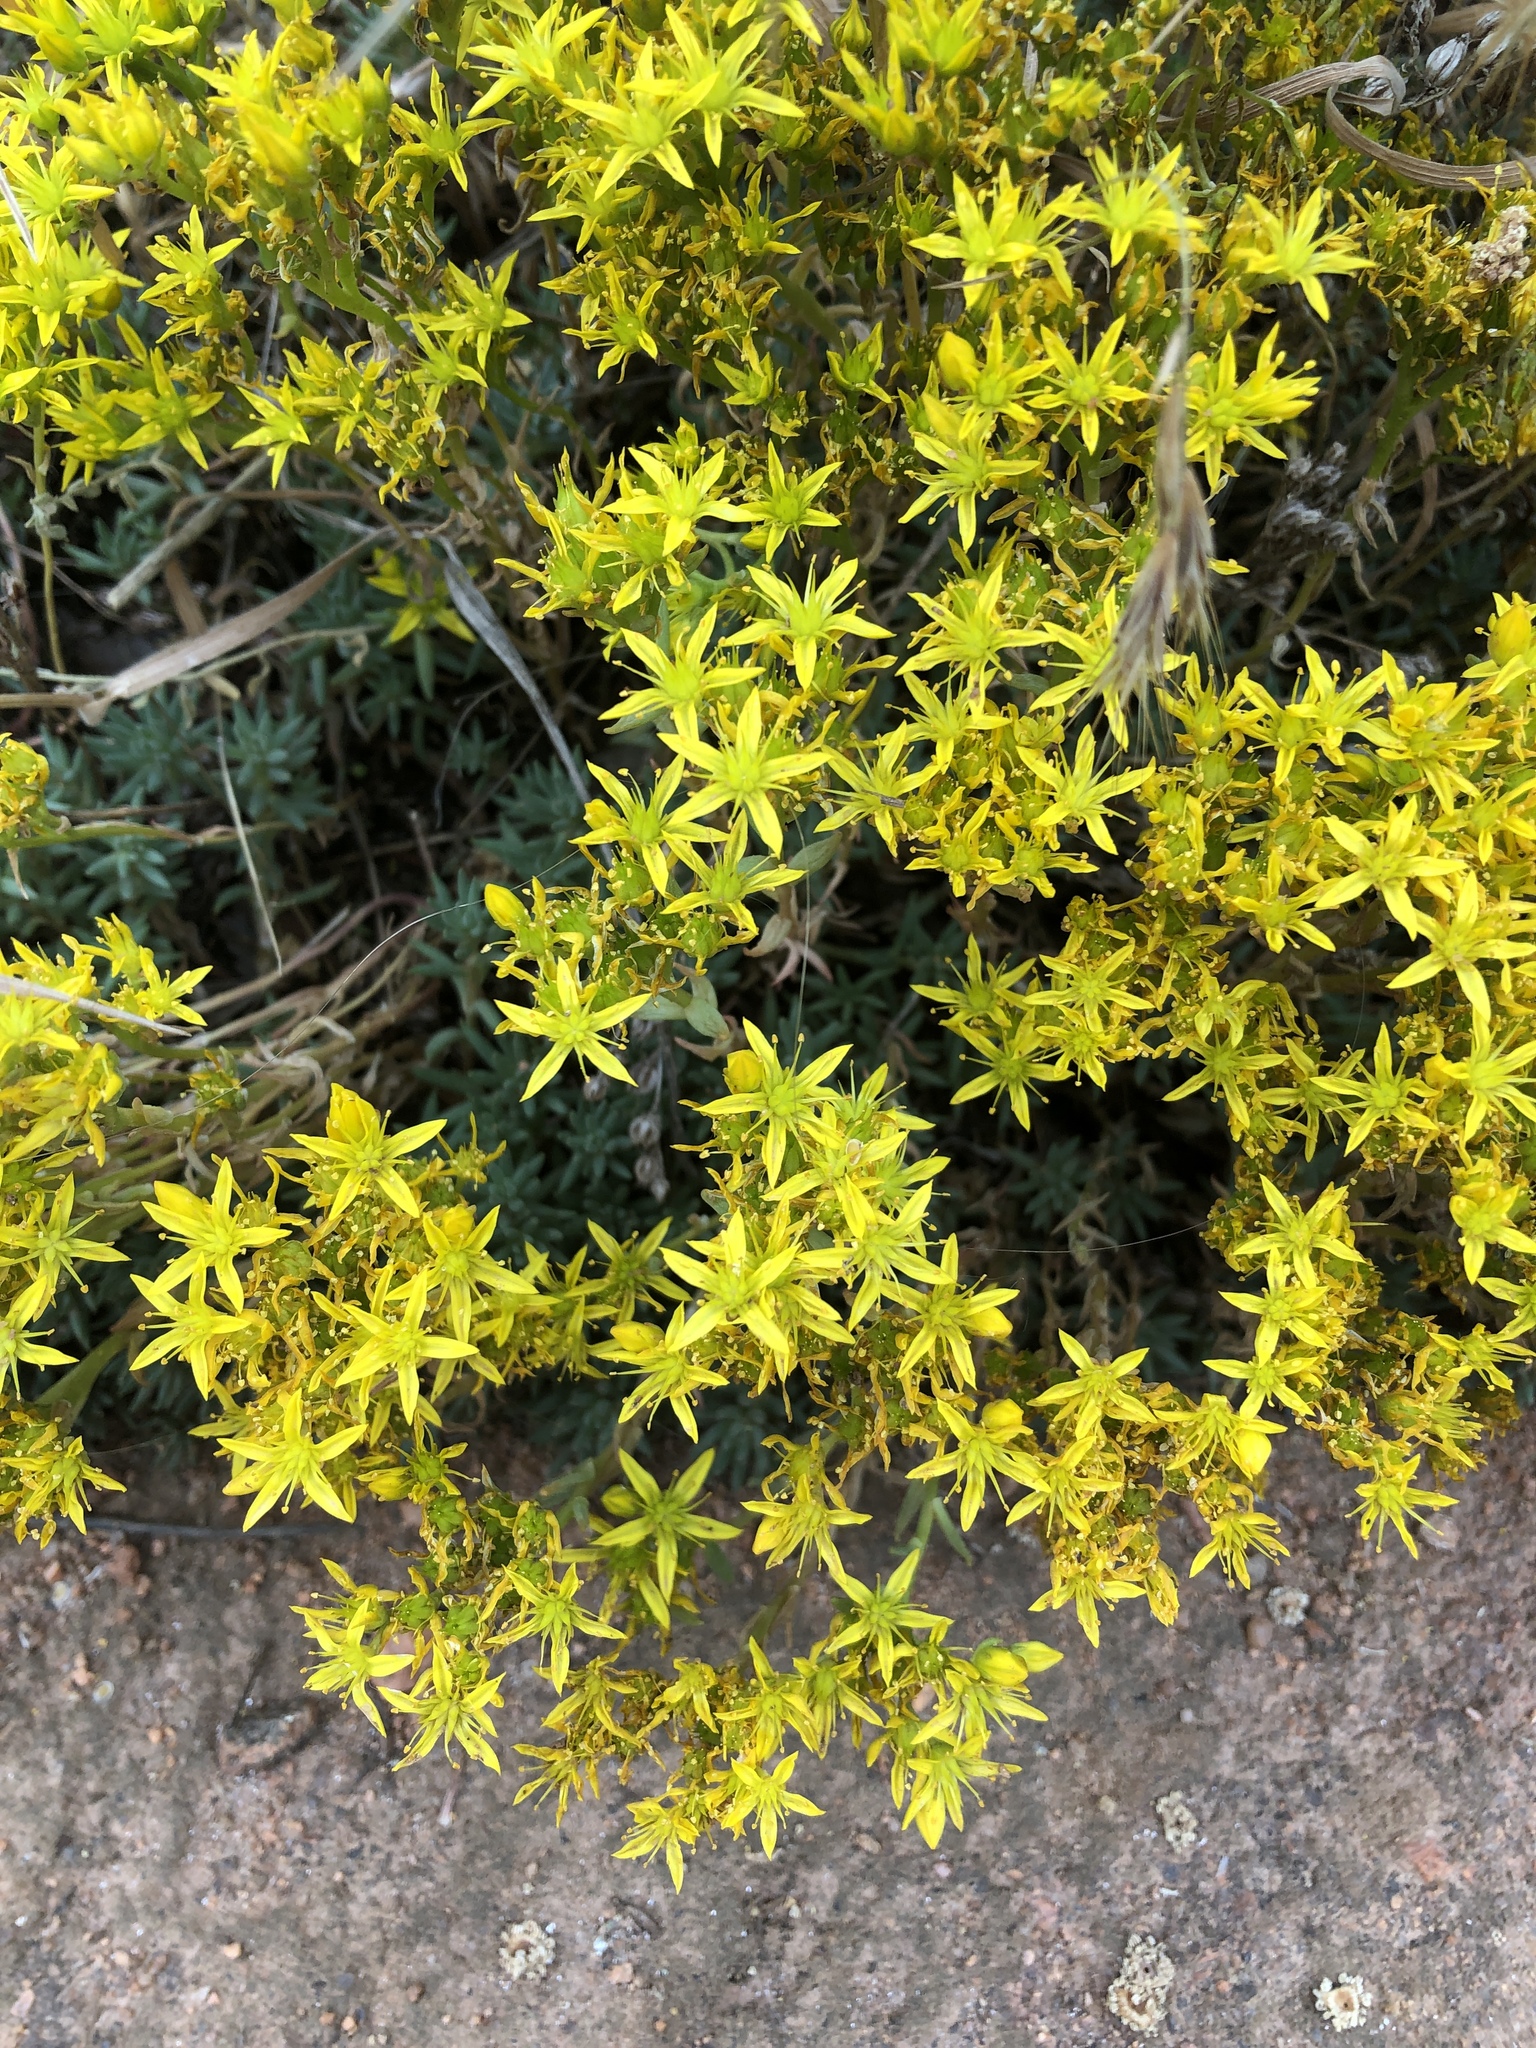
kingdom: Plantae
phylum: Tracheophyta
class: Magnoliopsida
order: Saxifragales
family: Crassulaceae
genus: Sedum
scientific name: Sedum lanceolatum
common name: Common stonecrop
